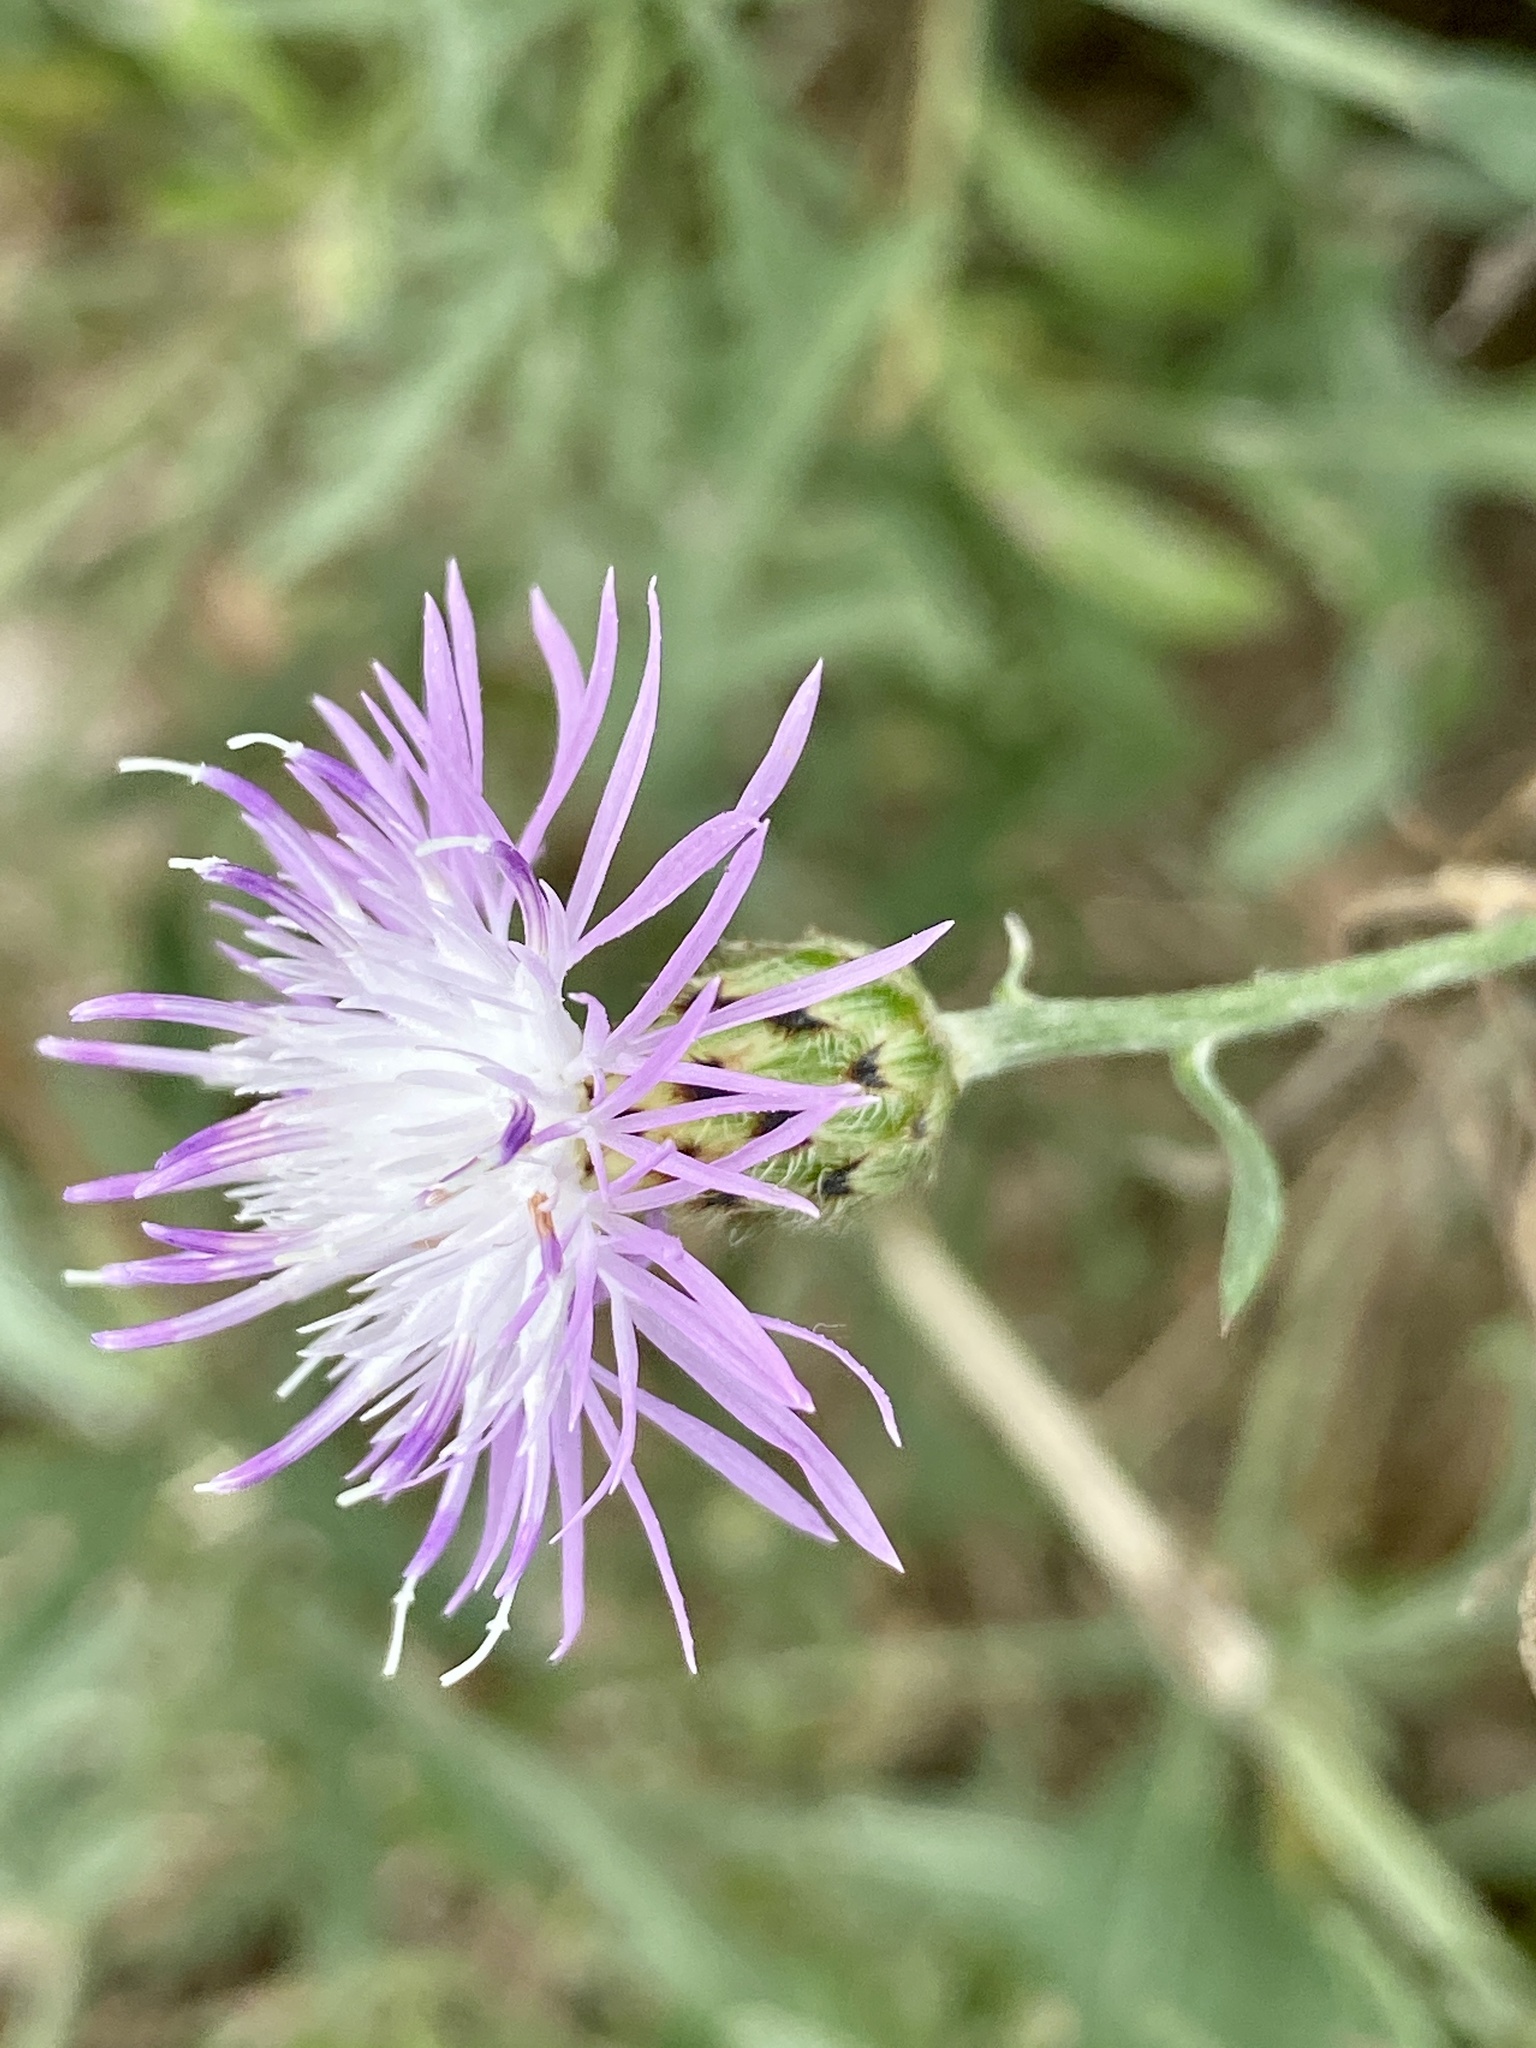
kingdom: Plantae
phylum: Tracheophyta
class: Magnoliopsida
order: Asterales
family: Asteraceae
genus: Centaurea
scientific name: Centaurea stoebe
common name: Spotted knapweed
